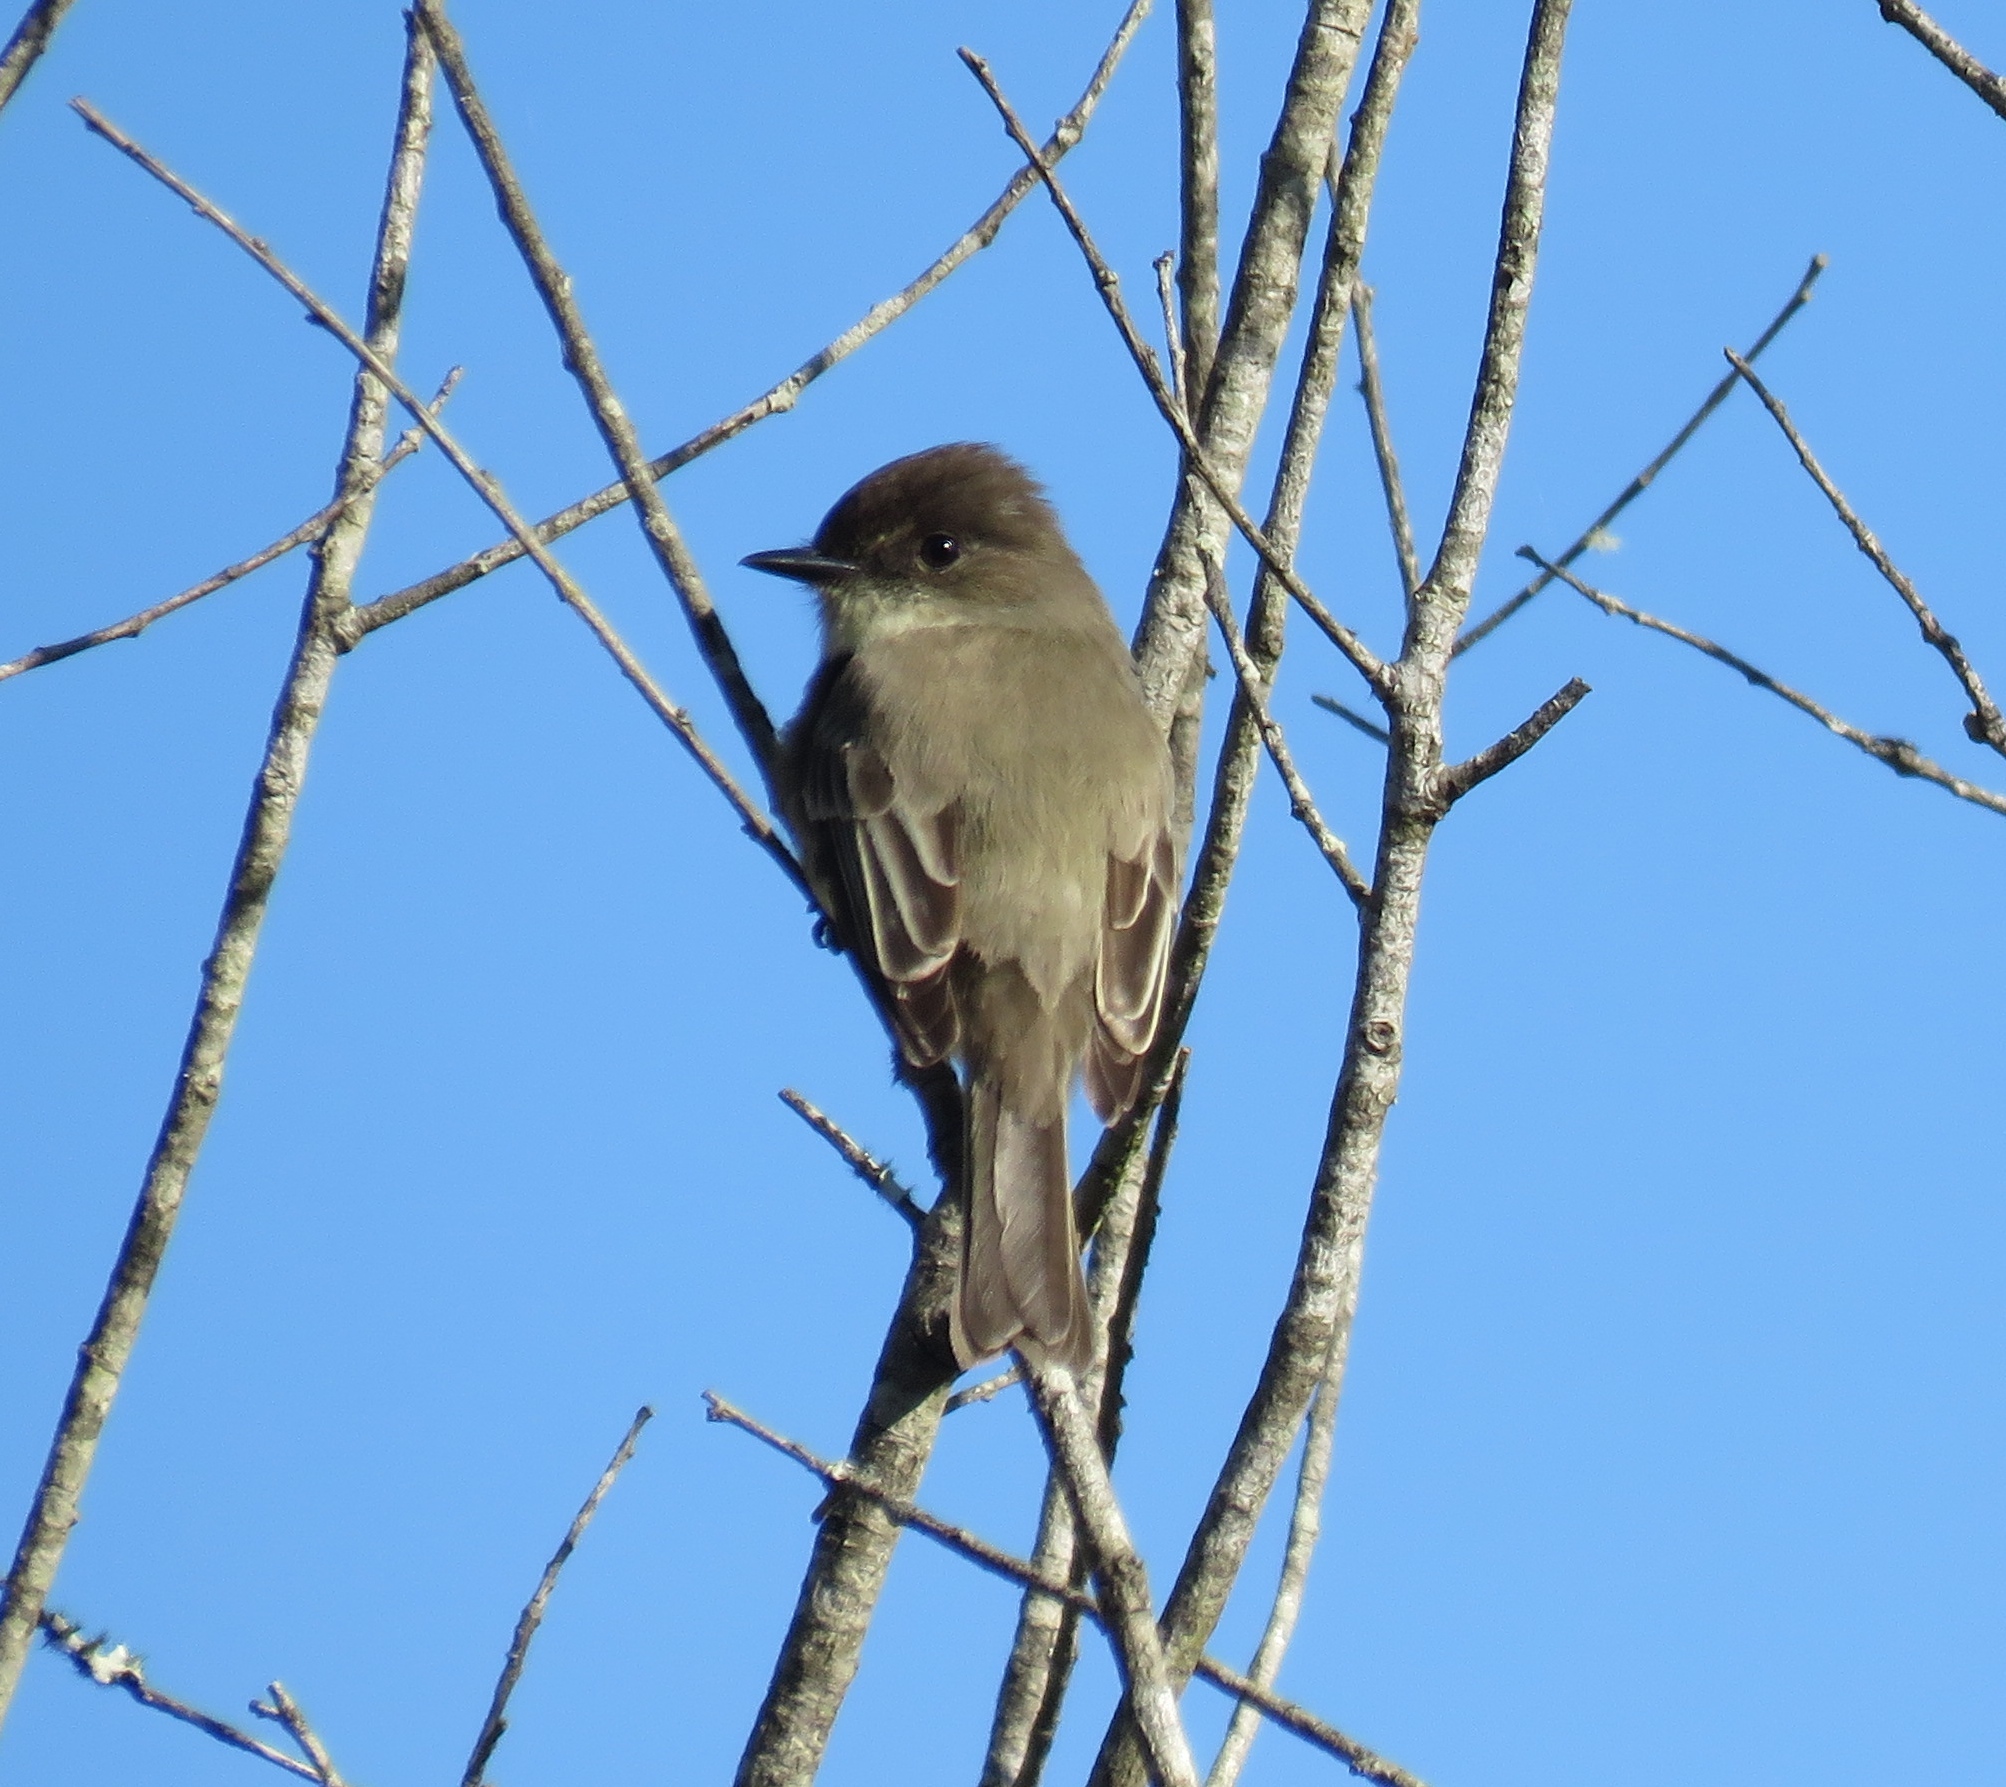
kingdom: Animalia
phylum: Chordata
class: Aves
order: Passeriformes
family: Tyrannidae
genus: Sayornis
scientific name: Sayornis phoebe
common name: Eastern phoebe
